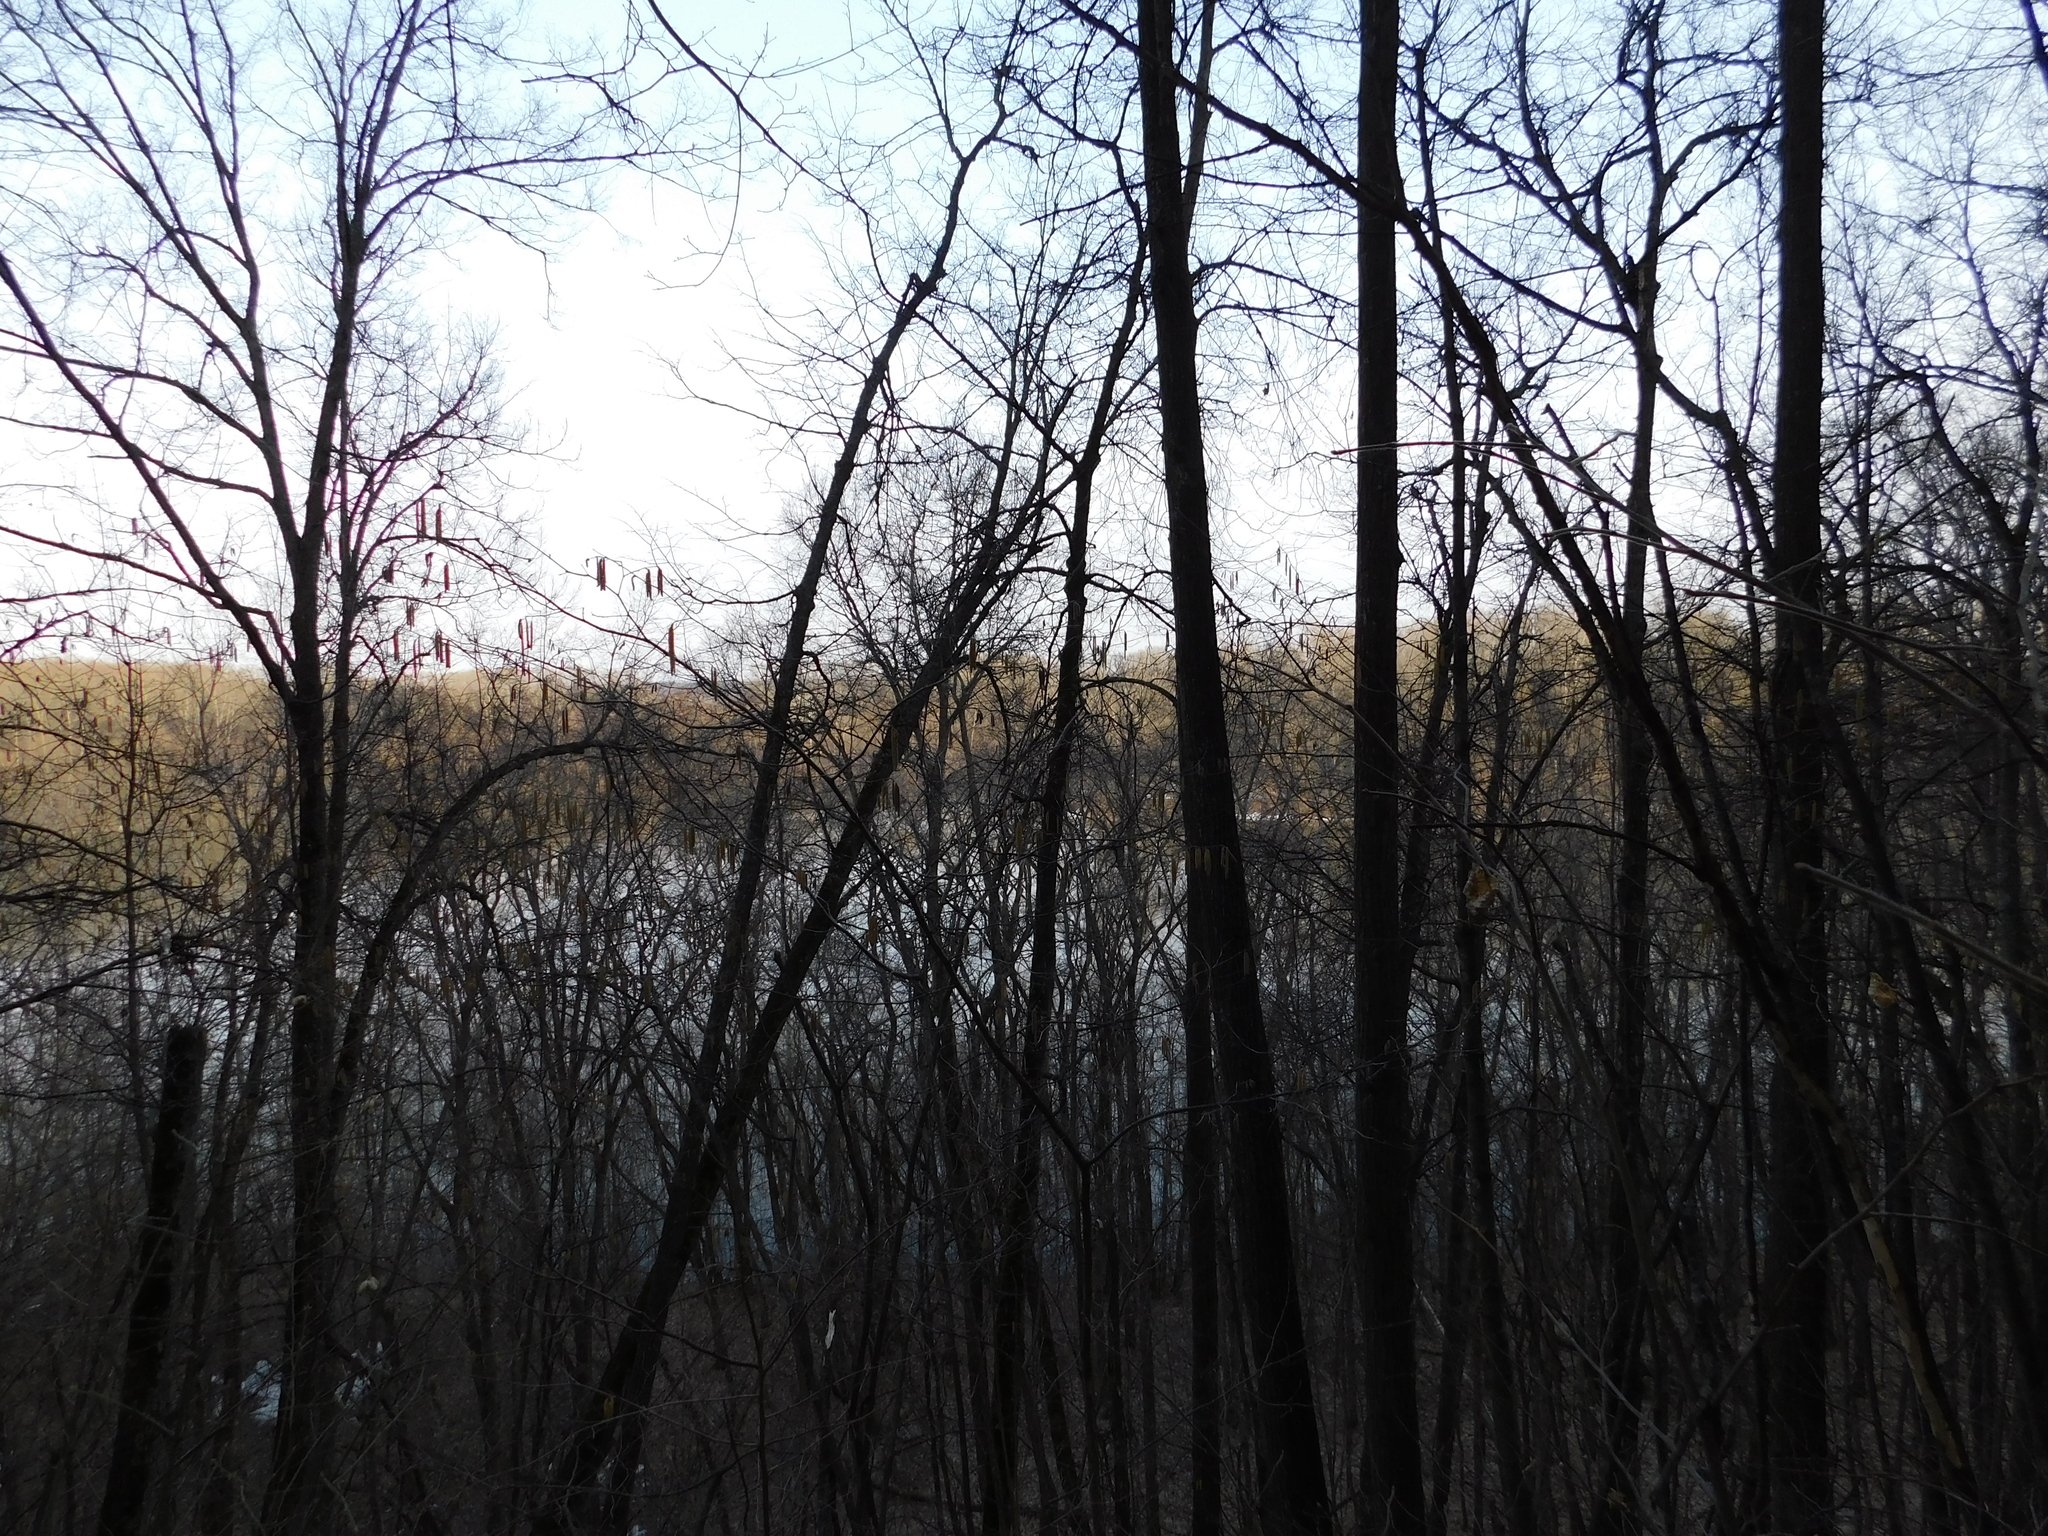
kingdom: Animalia
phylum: Chordata
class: Aves
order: Passeriformes
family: Turdidae
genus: Turdus
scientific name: Turdus merula
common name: Common blackbird
